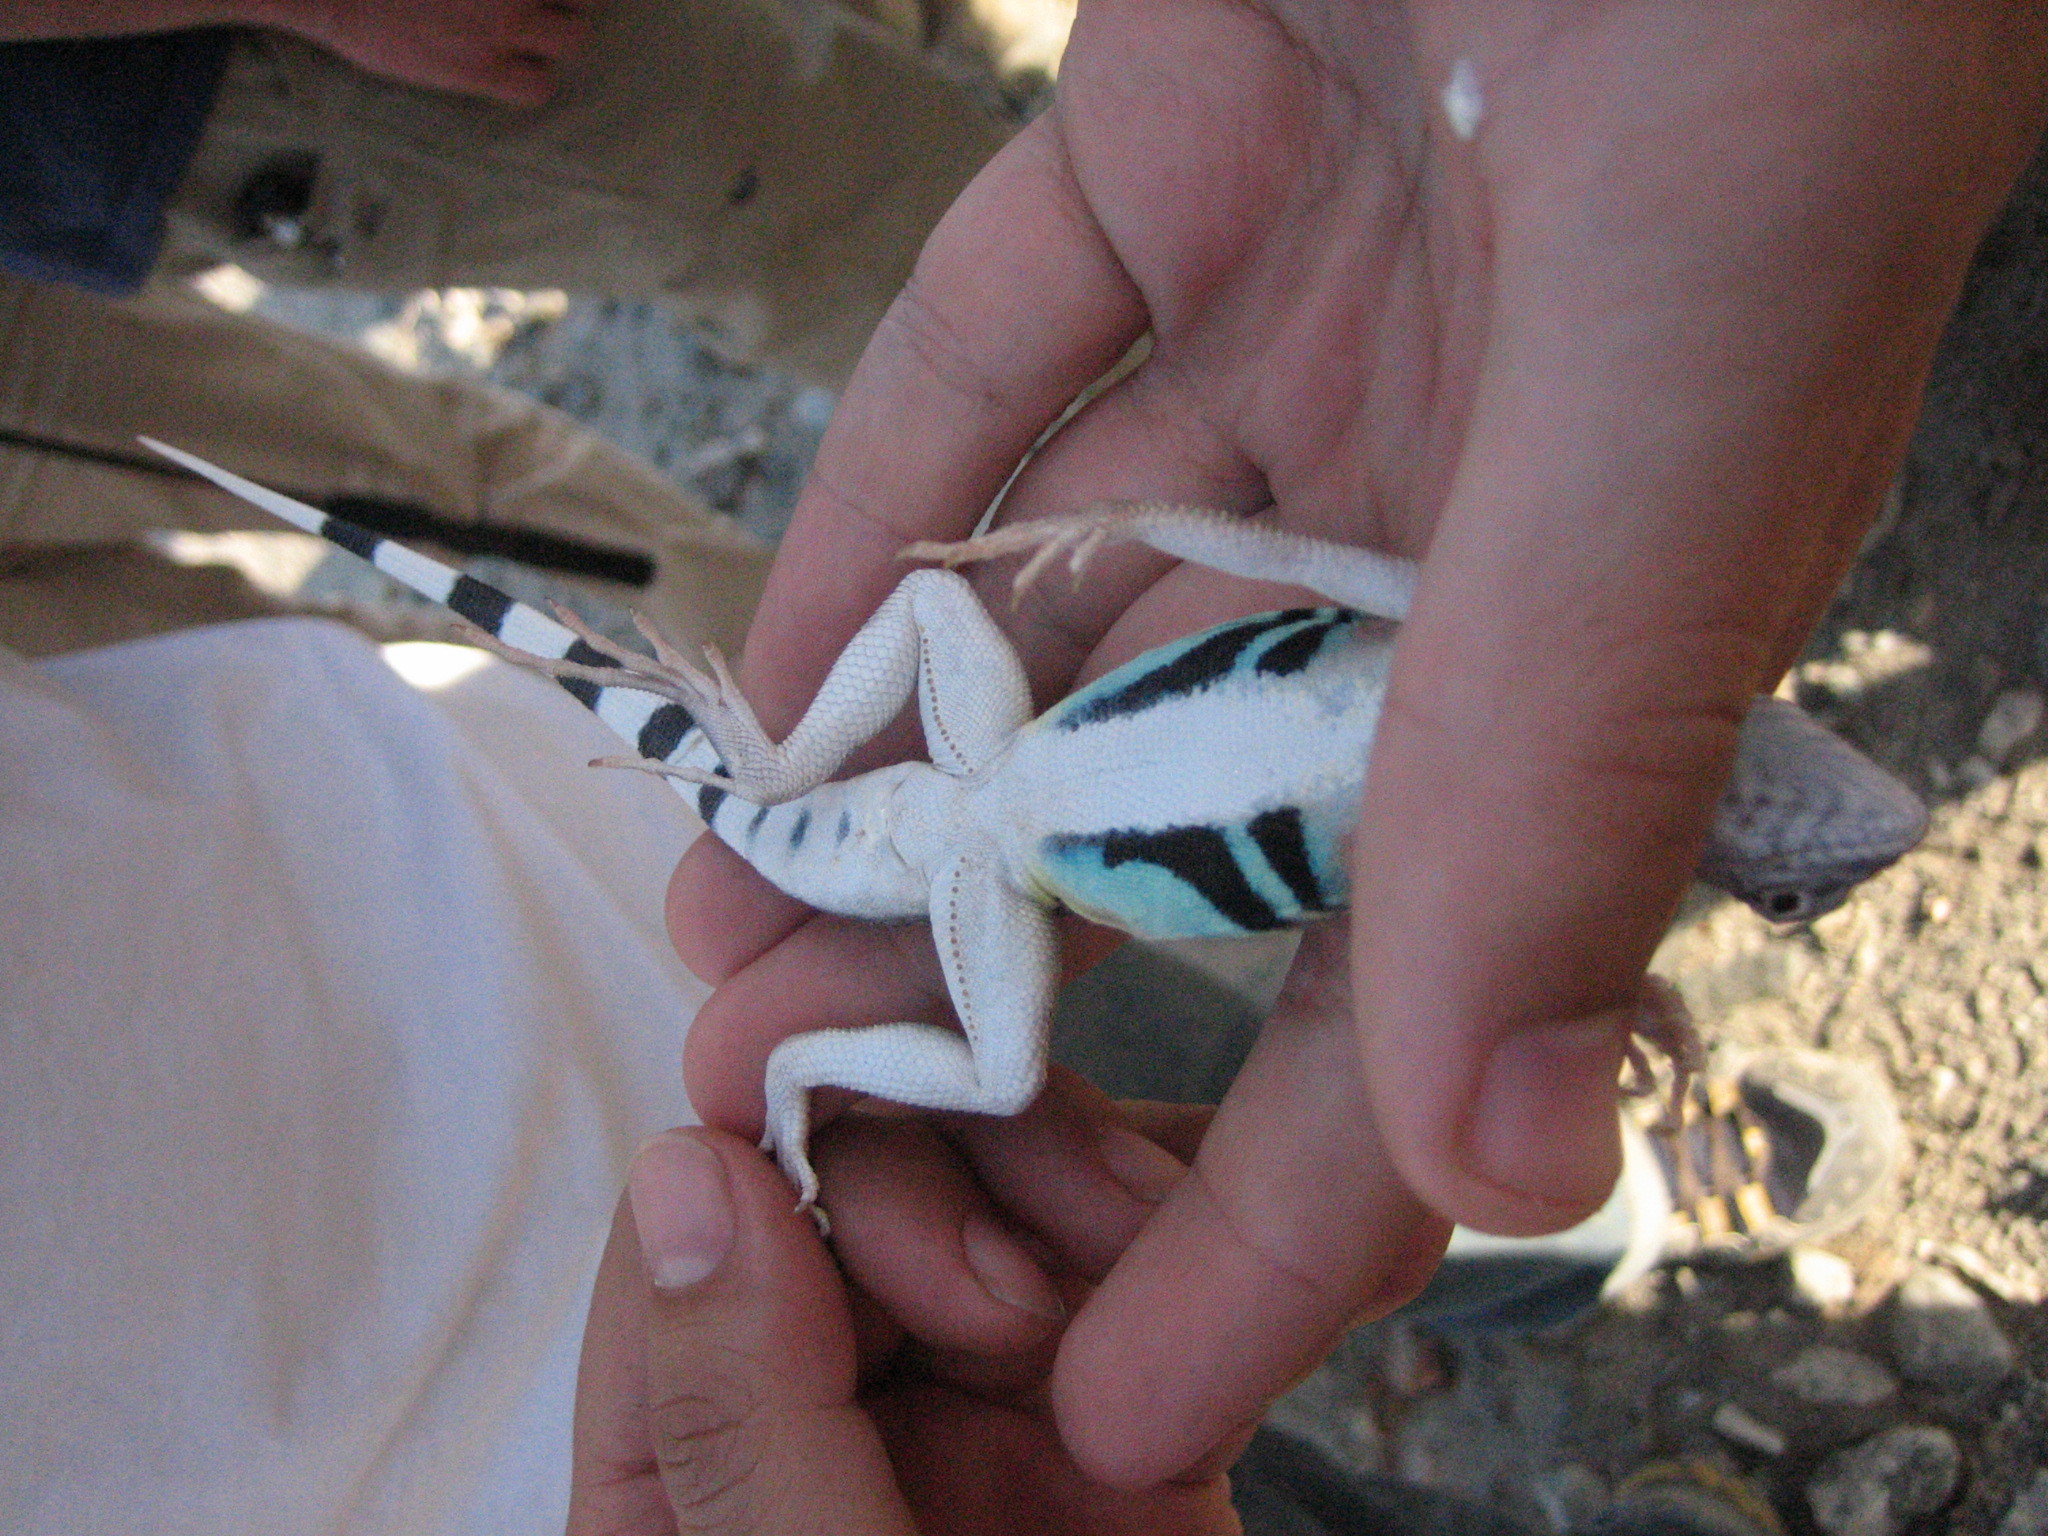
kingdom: Animalia
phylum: Chordata
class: Squamata
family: Phrynosomatidae
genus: Callisaurus
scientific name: Callisaurus draconoides
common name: Zebra-tailed lizard
